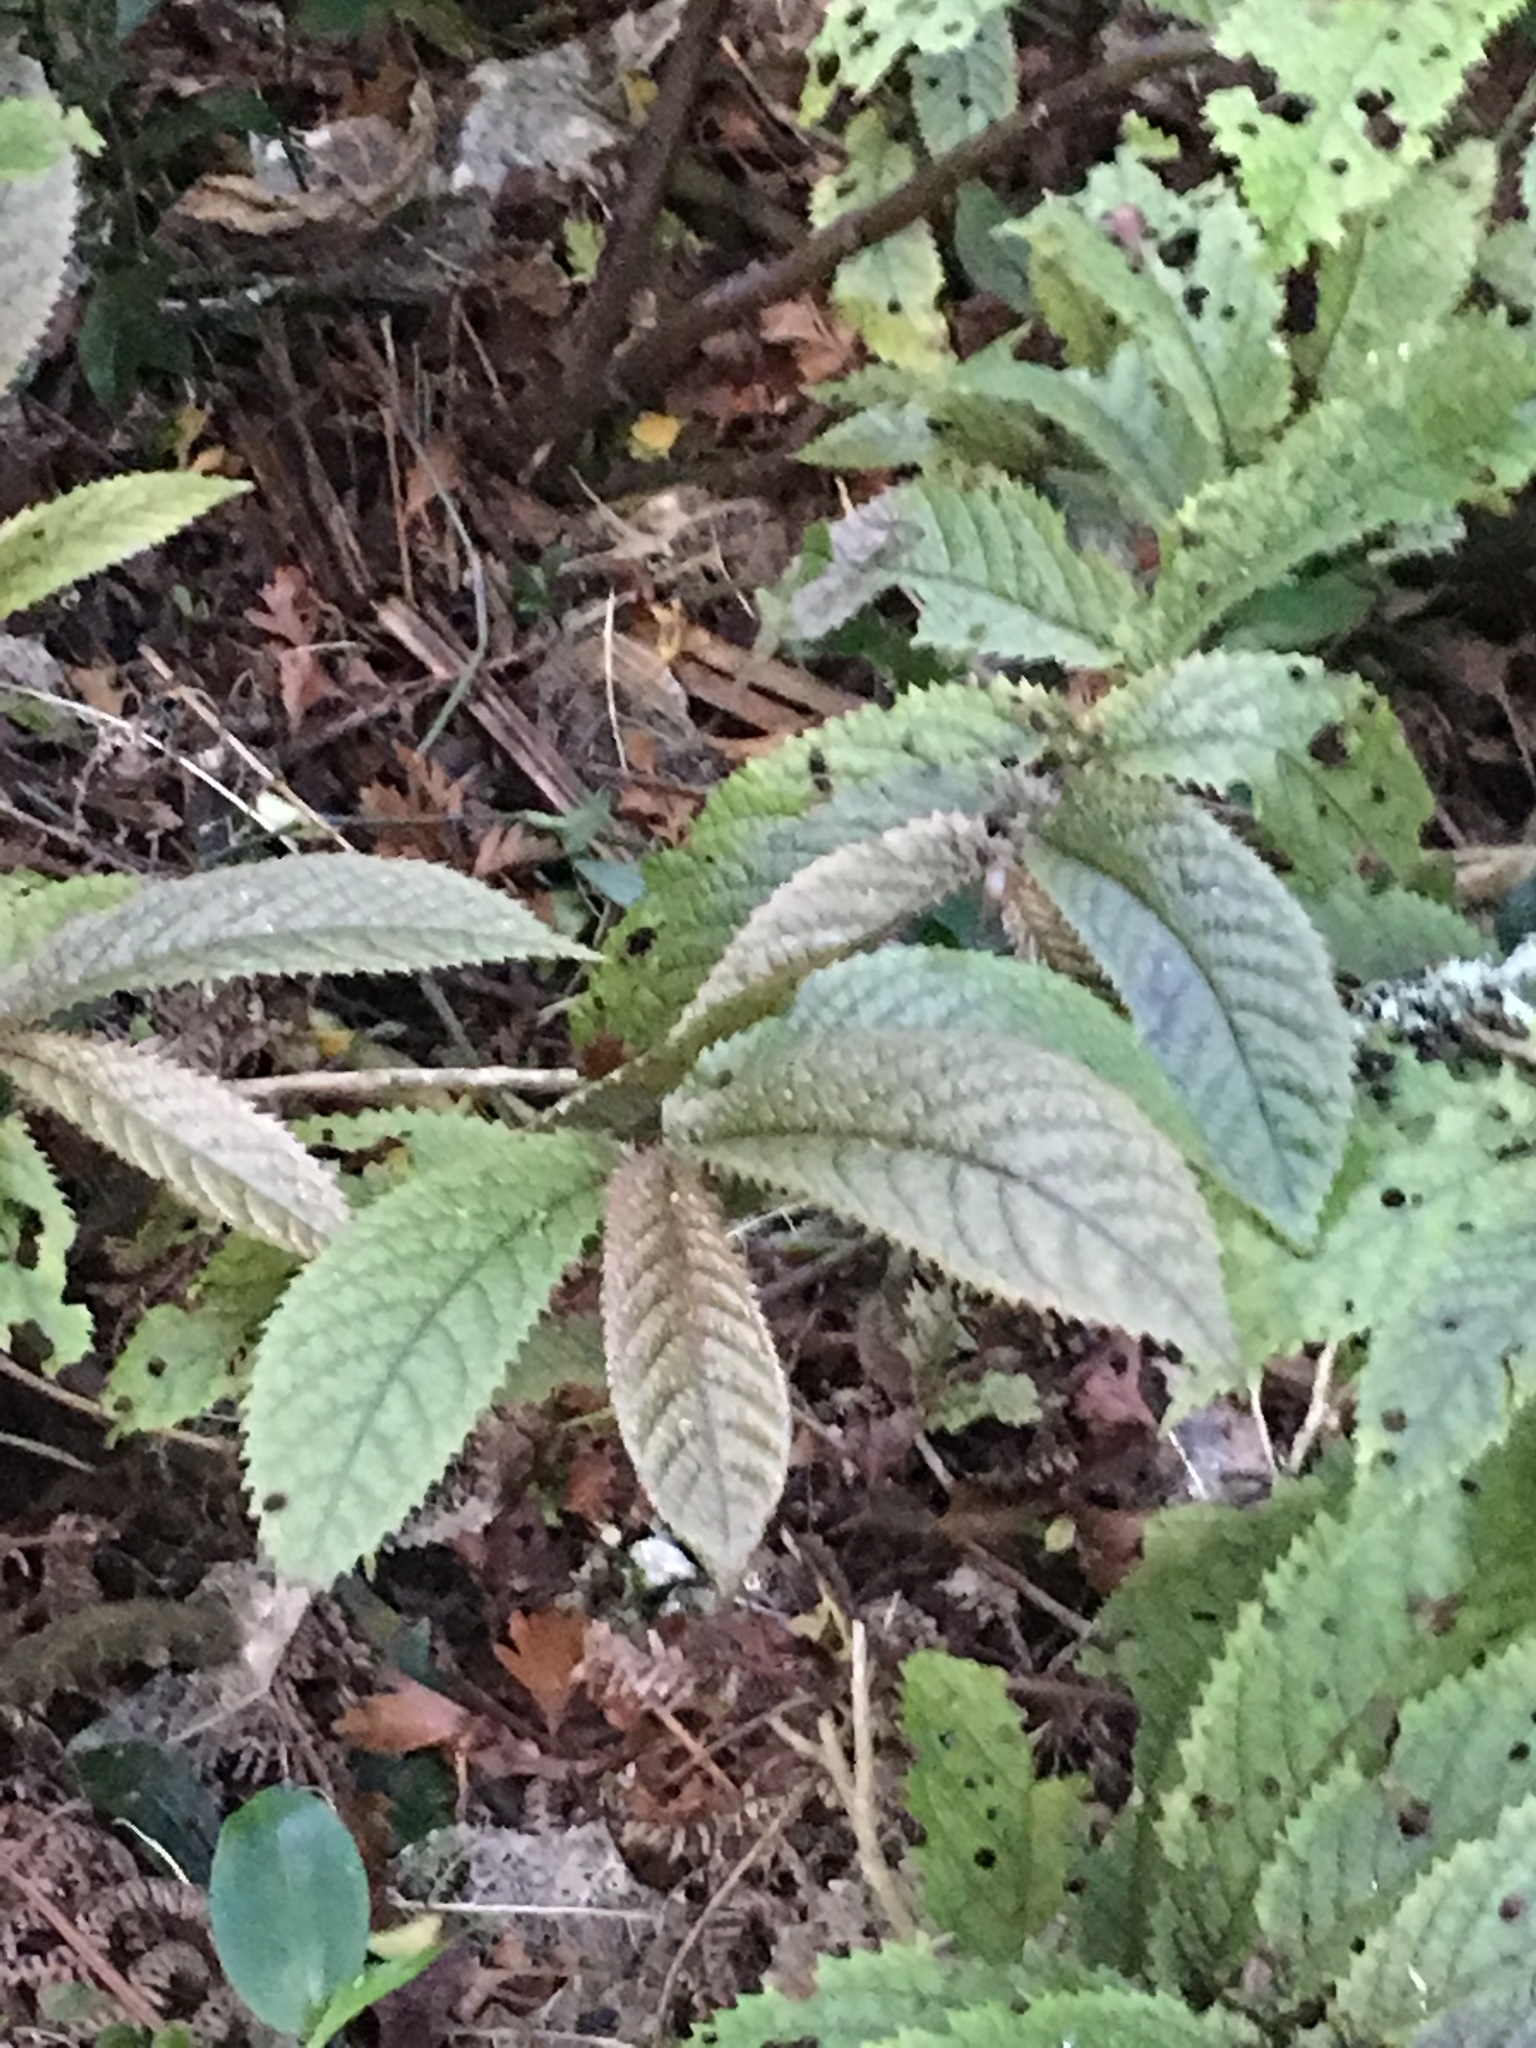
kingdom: Plantae
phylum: Tracheophyta
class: Magnoliopsida
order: Rosales
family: Urticaceae
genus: Elatostema
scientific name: Elatostema rugosum
